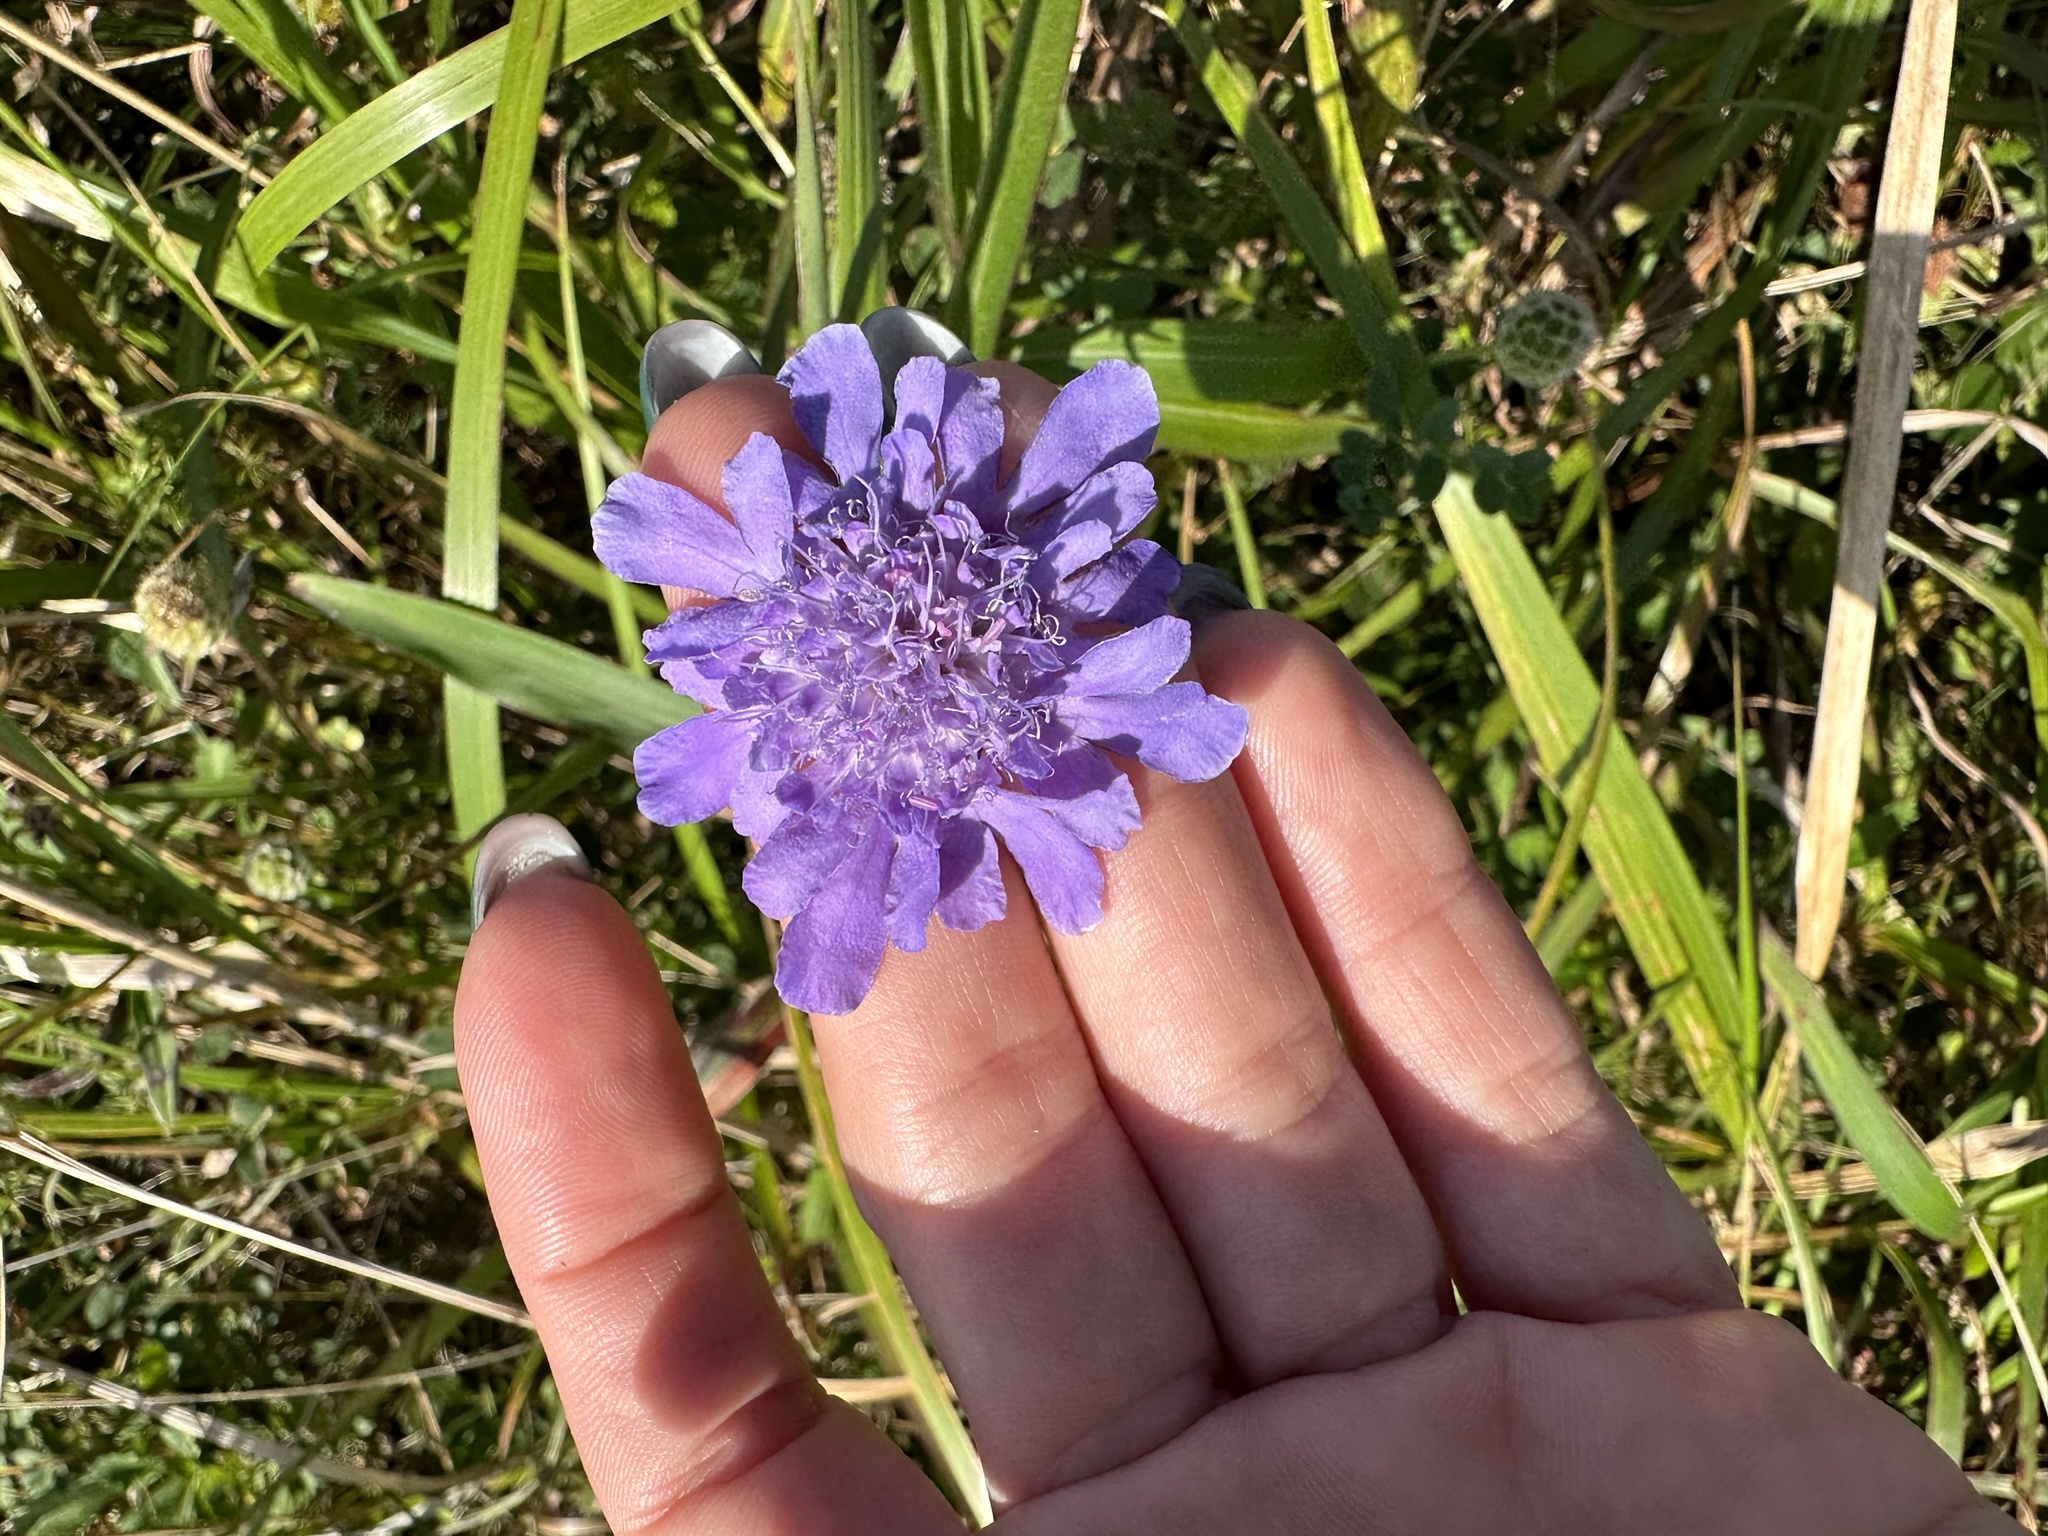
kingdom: Plantae
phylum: Tracheophyta
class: Magnoliopsida
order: Dipsacales
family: Caprifoliaceae
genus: Scabiosa
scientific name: Scabiosa lachnophylla
